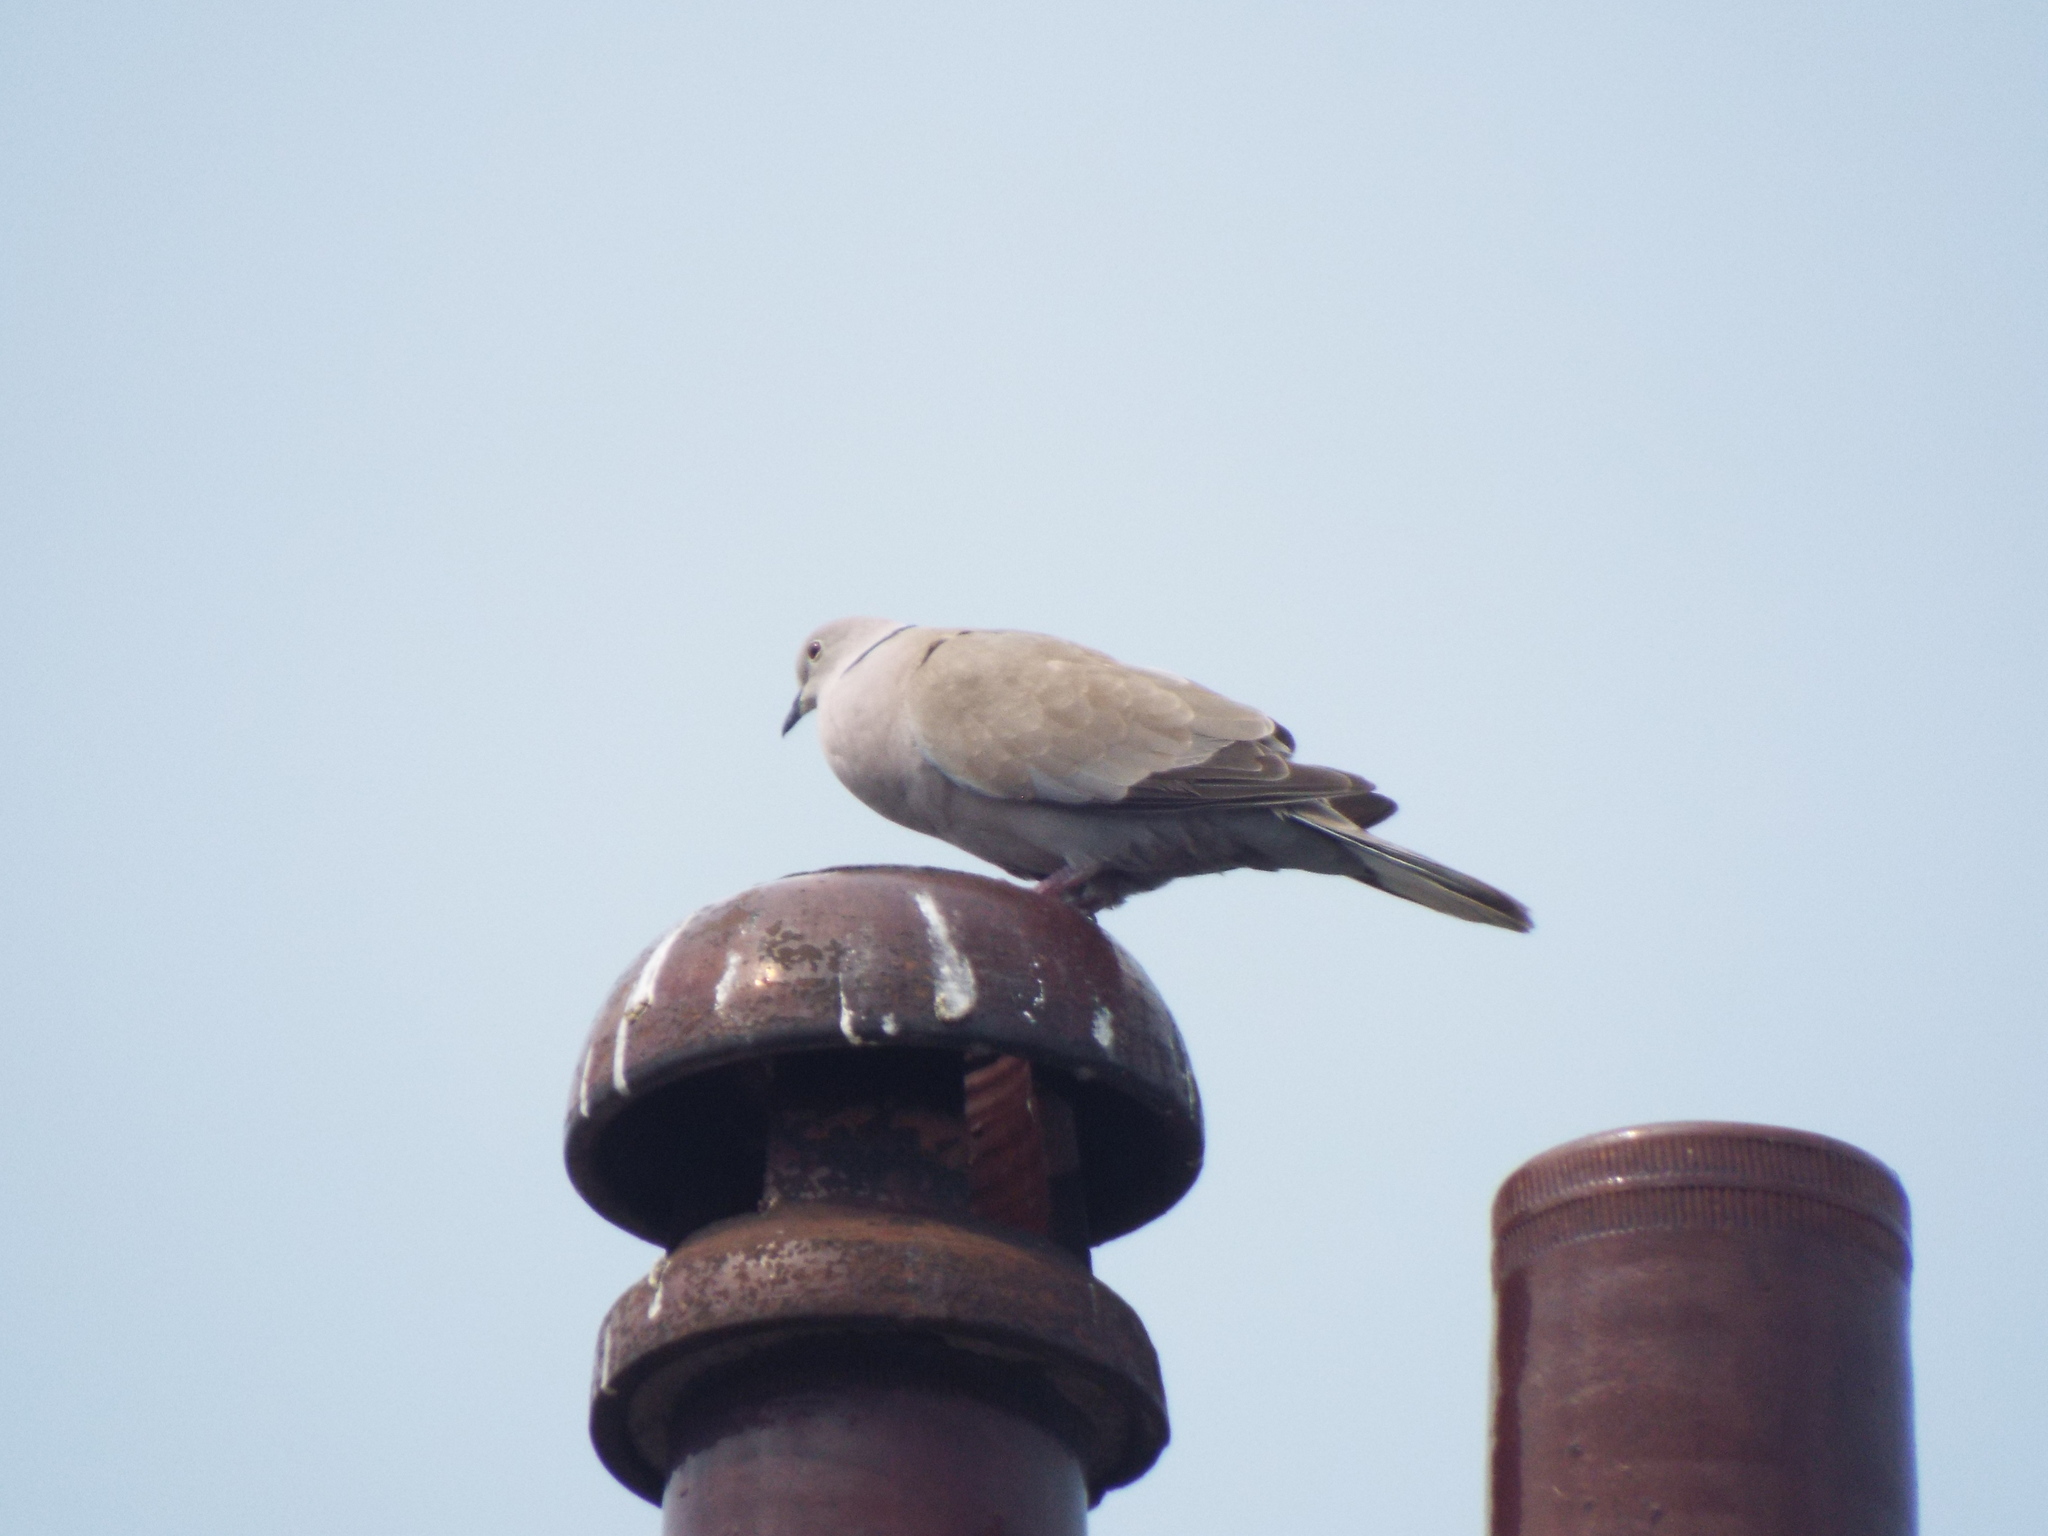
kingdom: Animalia
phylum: Chordata
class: Aves
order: Columbiformes
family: Columbidae
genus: Streptopelia
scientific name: Streptopelia decaocto
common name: Eurasian collared dove
